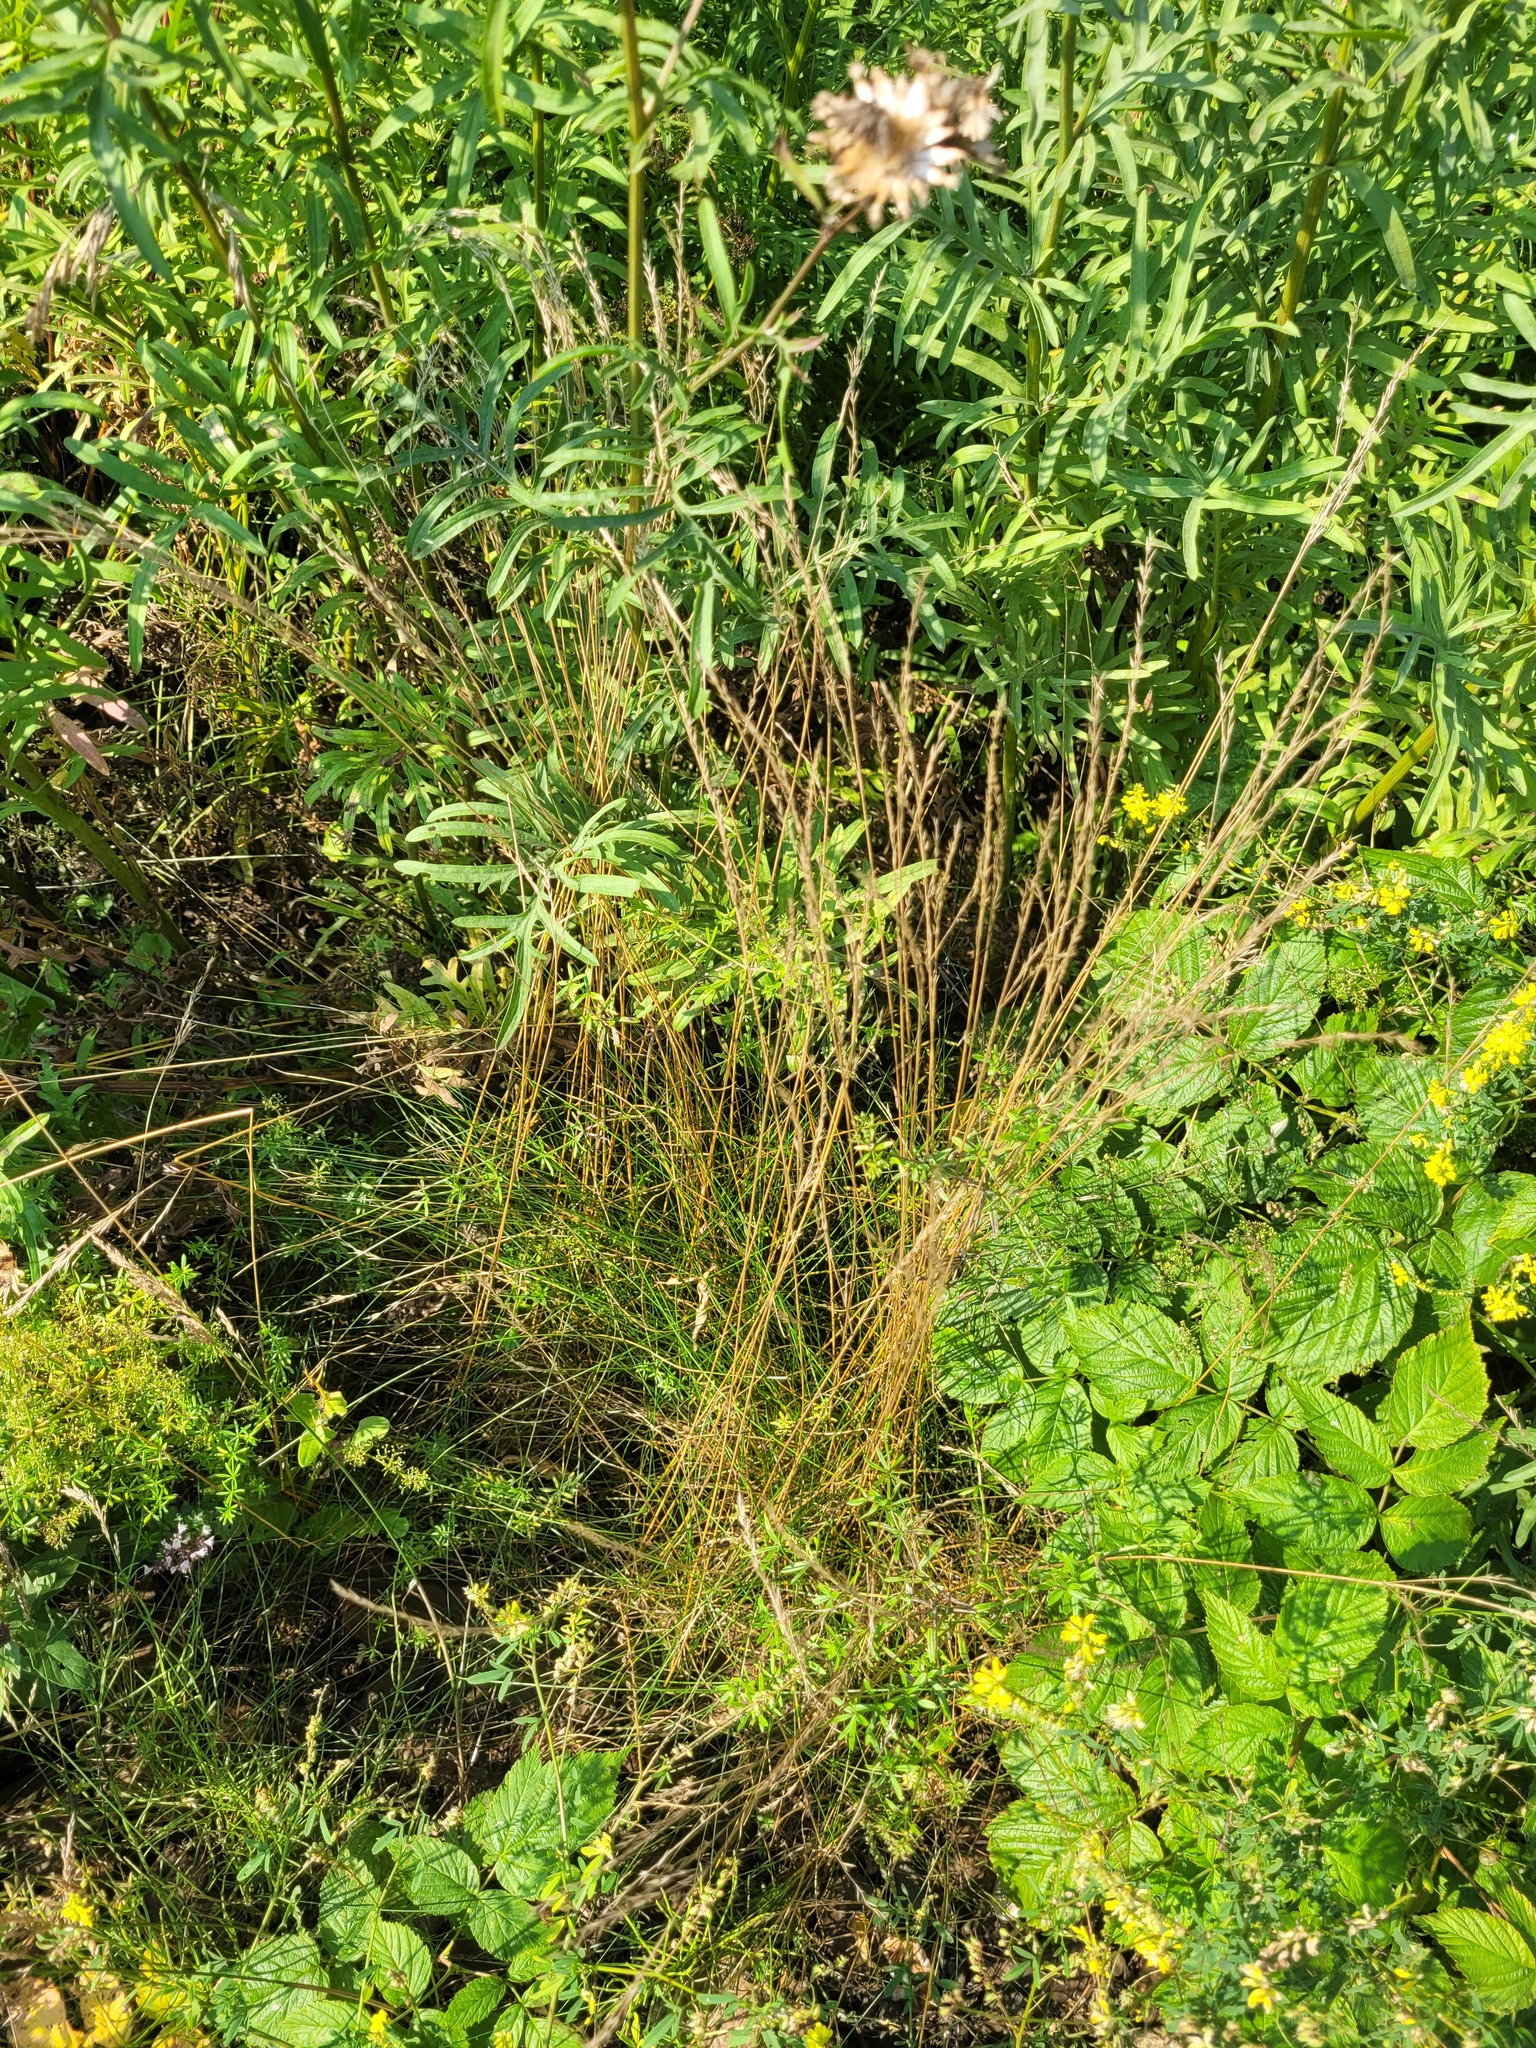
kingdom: Plantae
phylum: Tracheophyta
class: Liliopsida
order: Poales
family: Poaceae
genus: Festuca
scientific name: Festuca rubra
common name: Red fescue
